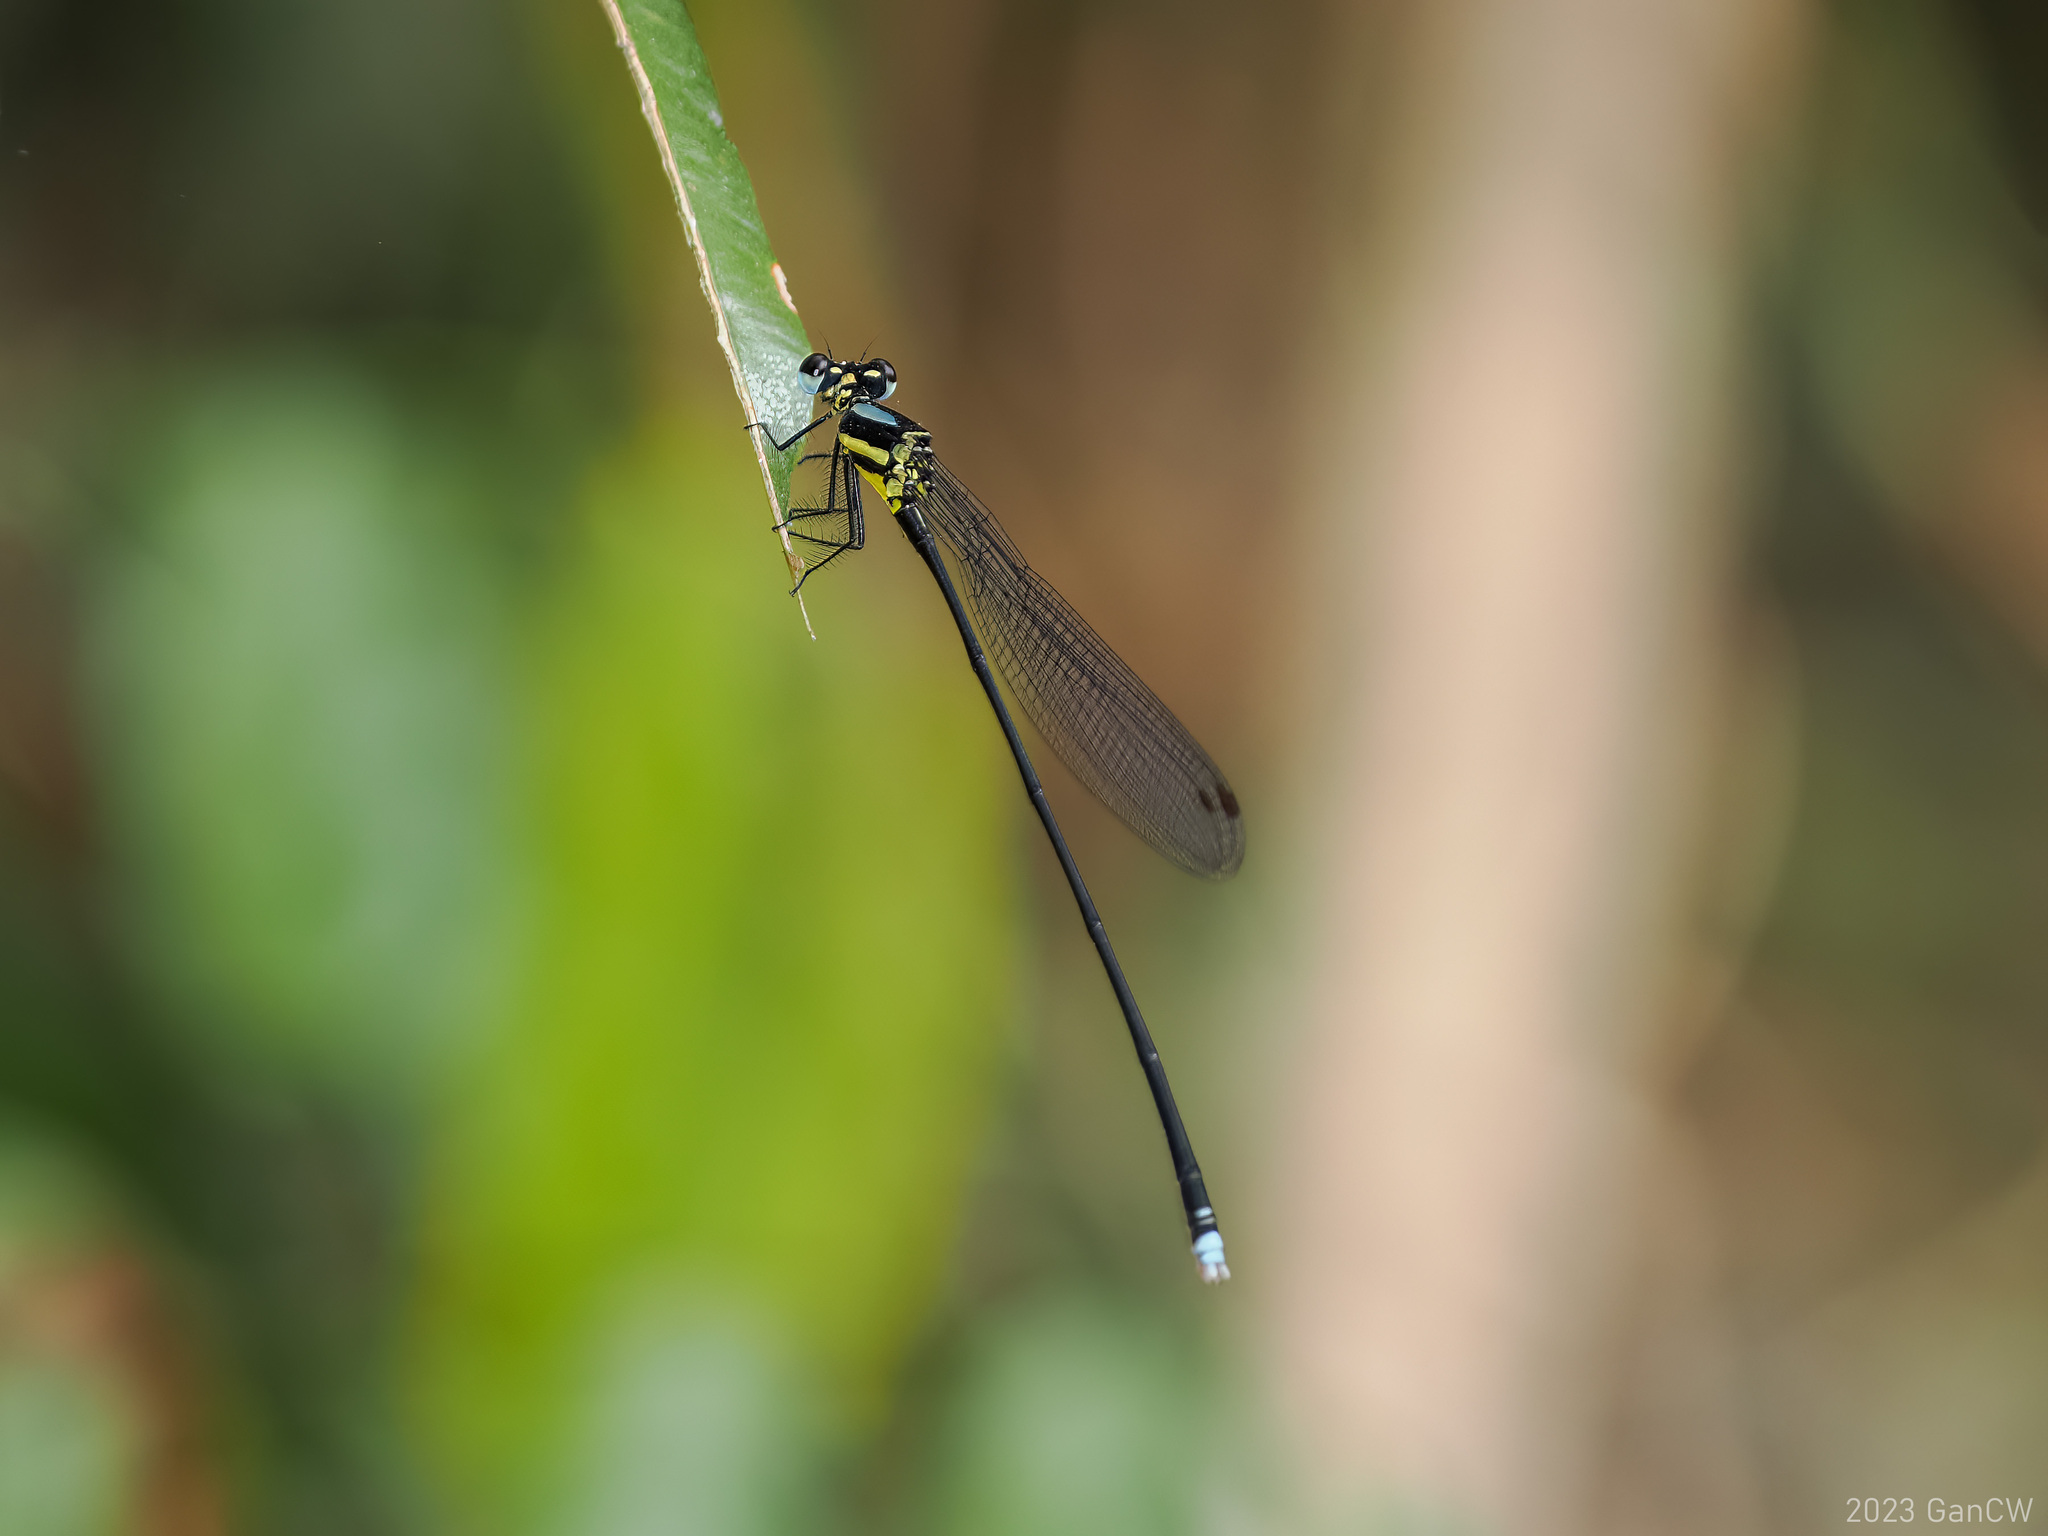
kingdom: Animalia
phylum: Arthropoda
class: Insecta
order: Odonata
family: Platycnemididae
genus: Indocnemis
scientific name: Indocnemis orang
